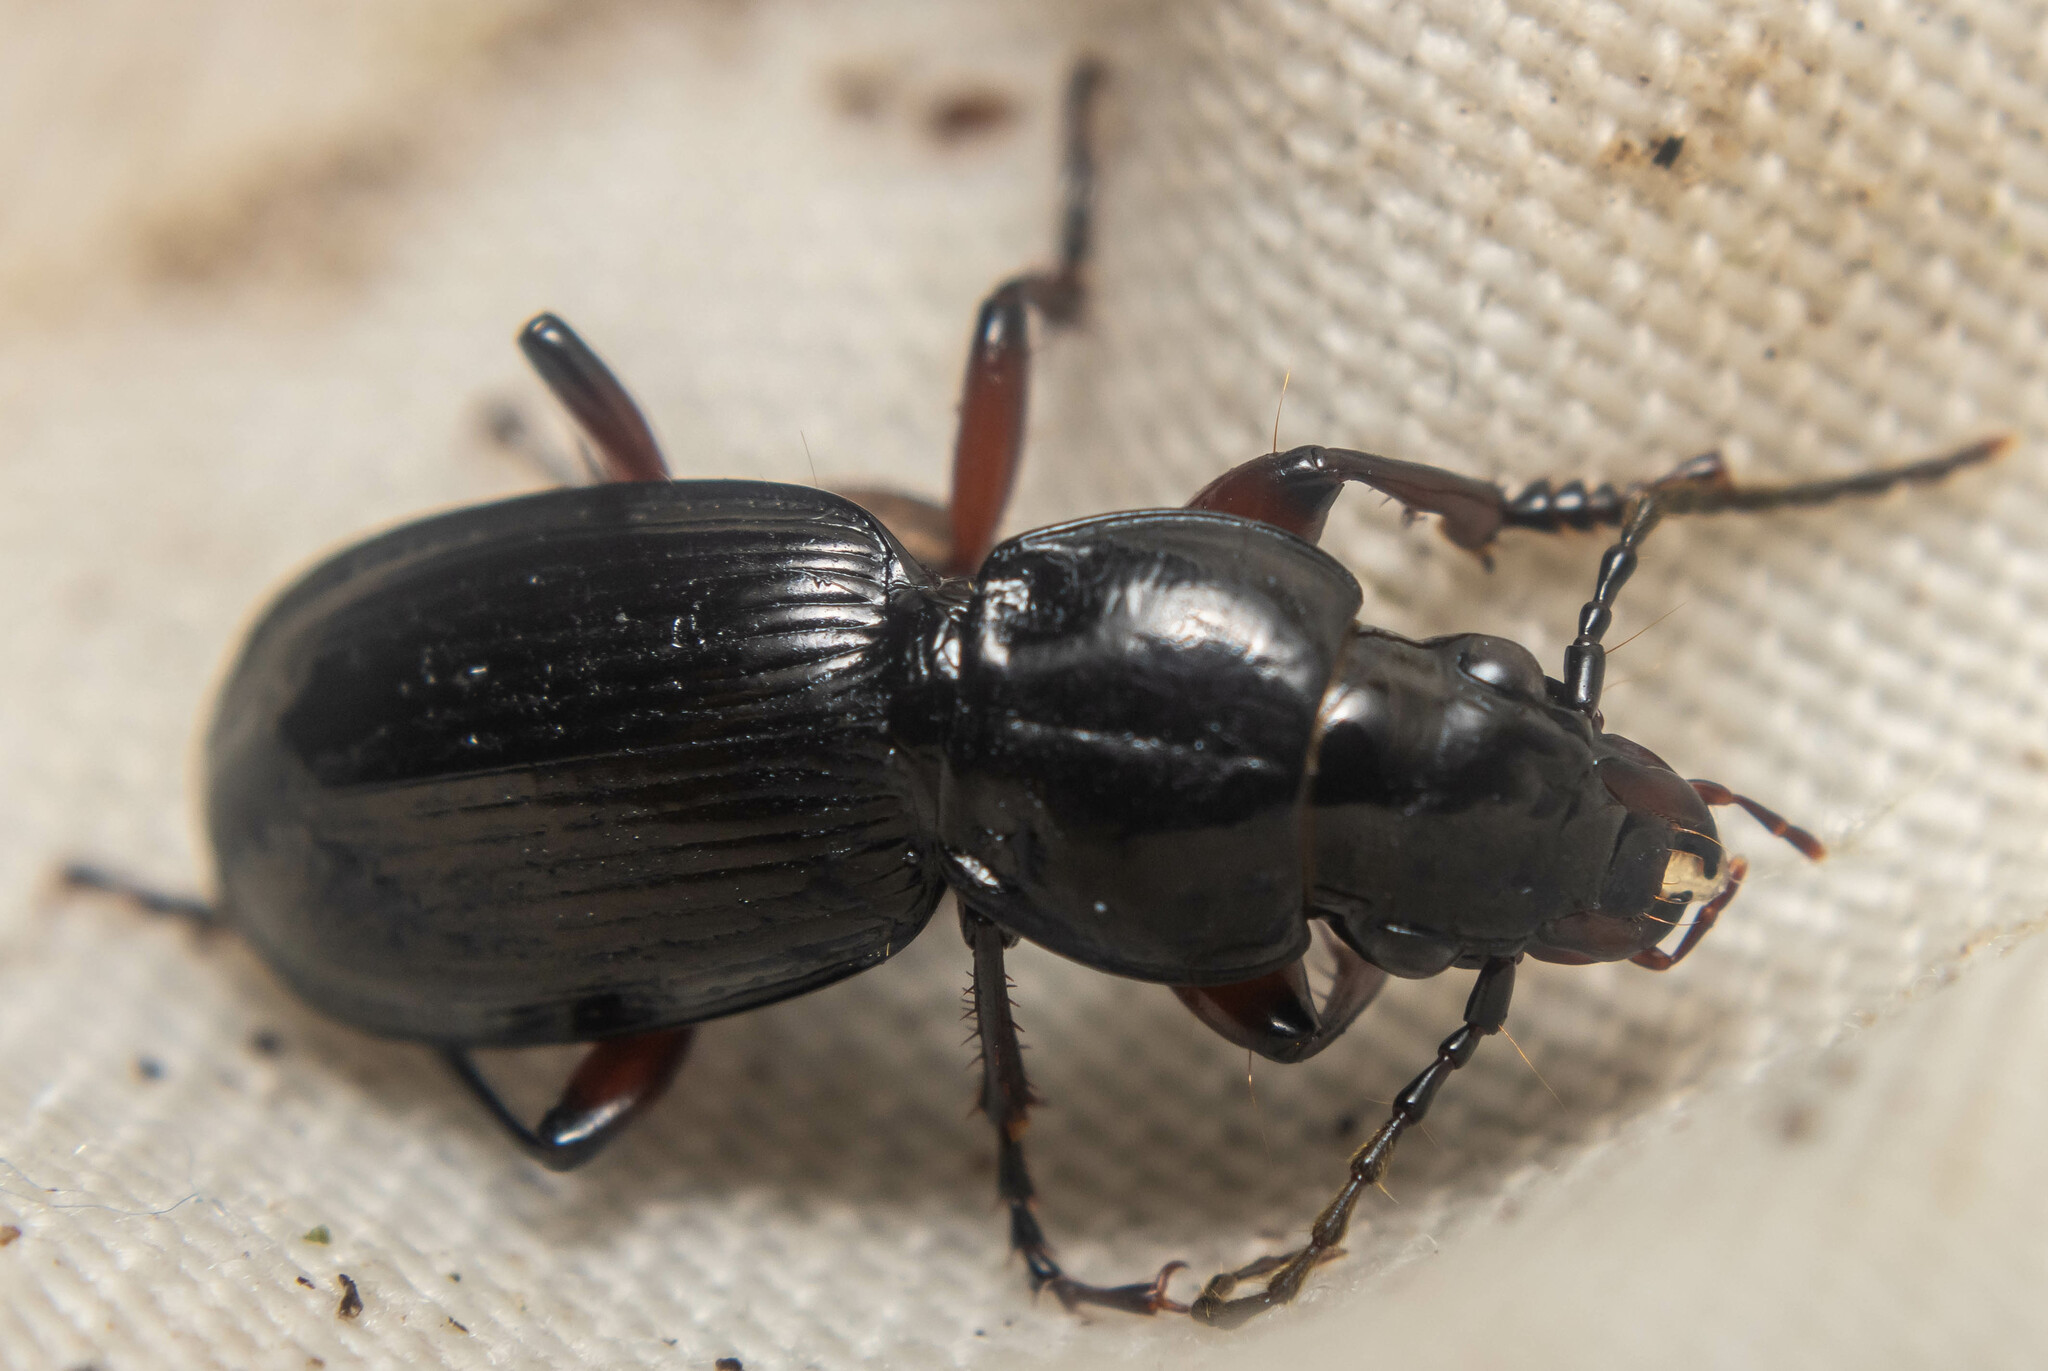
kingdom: Animalia
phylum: Arthropoda
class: Insecta
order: Coleoptera
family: Carabidae
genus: Pterostichus
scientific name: Pterostichus madidus
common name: Black clock
